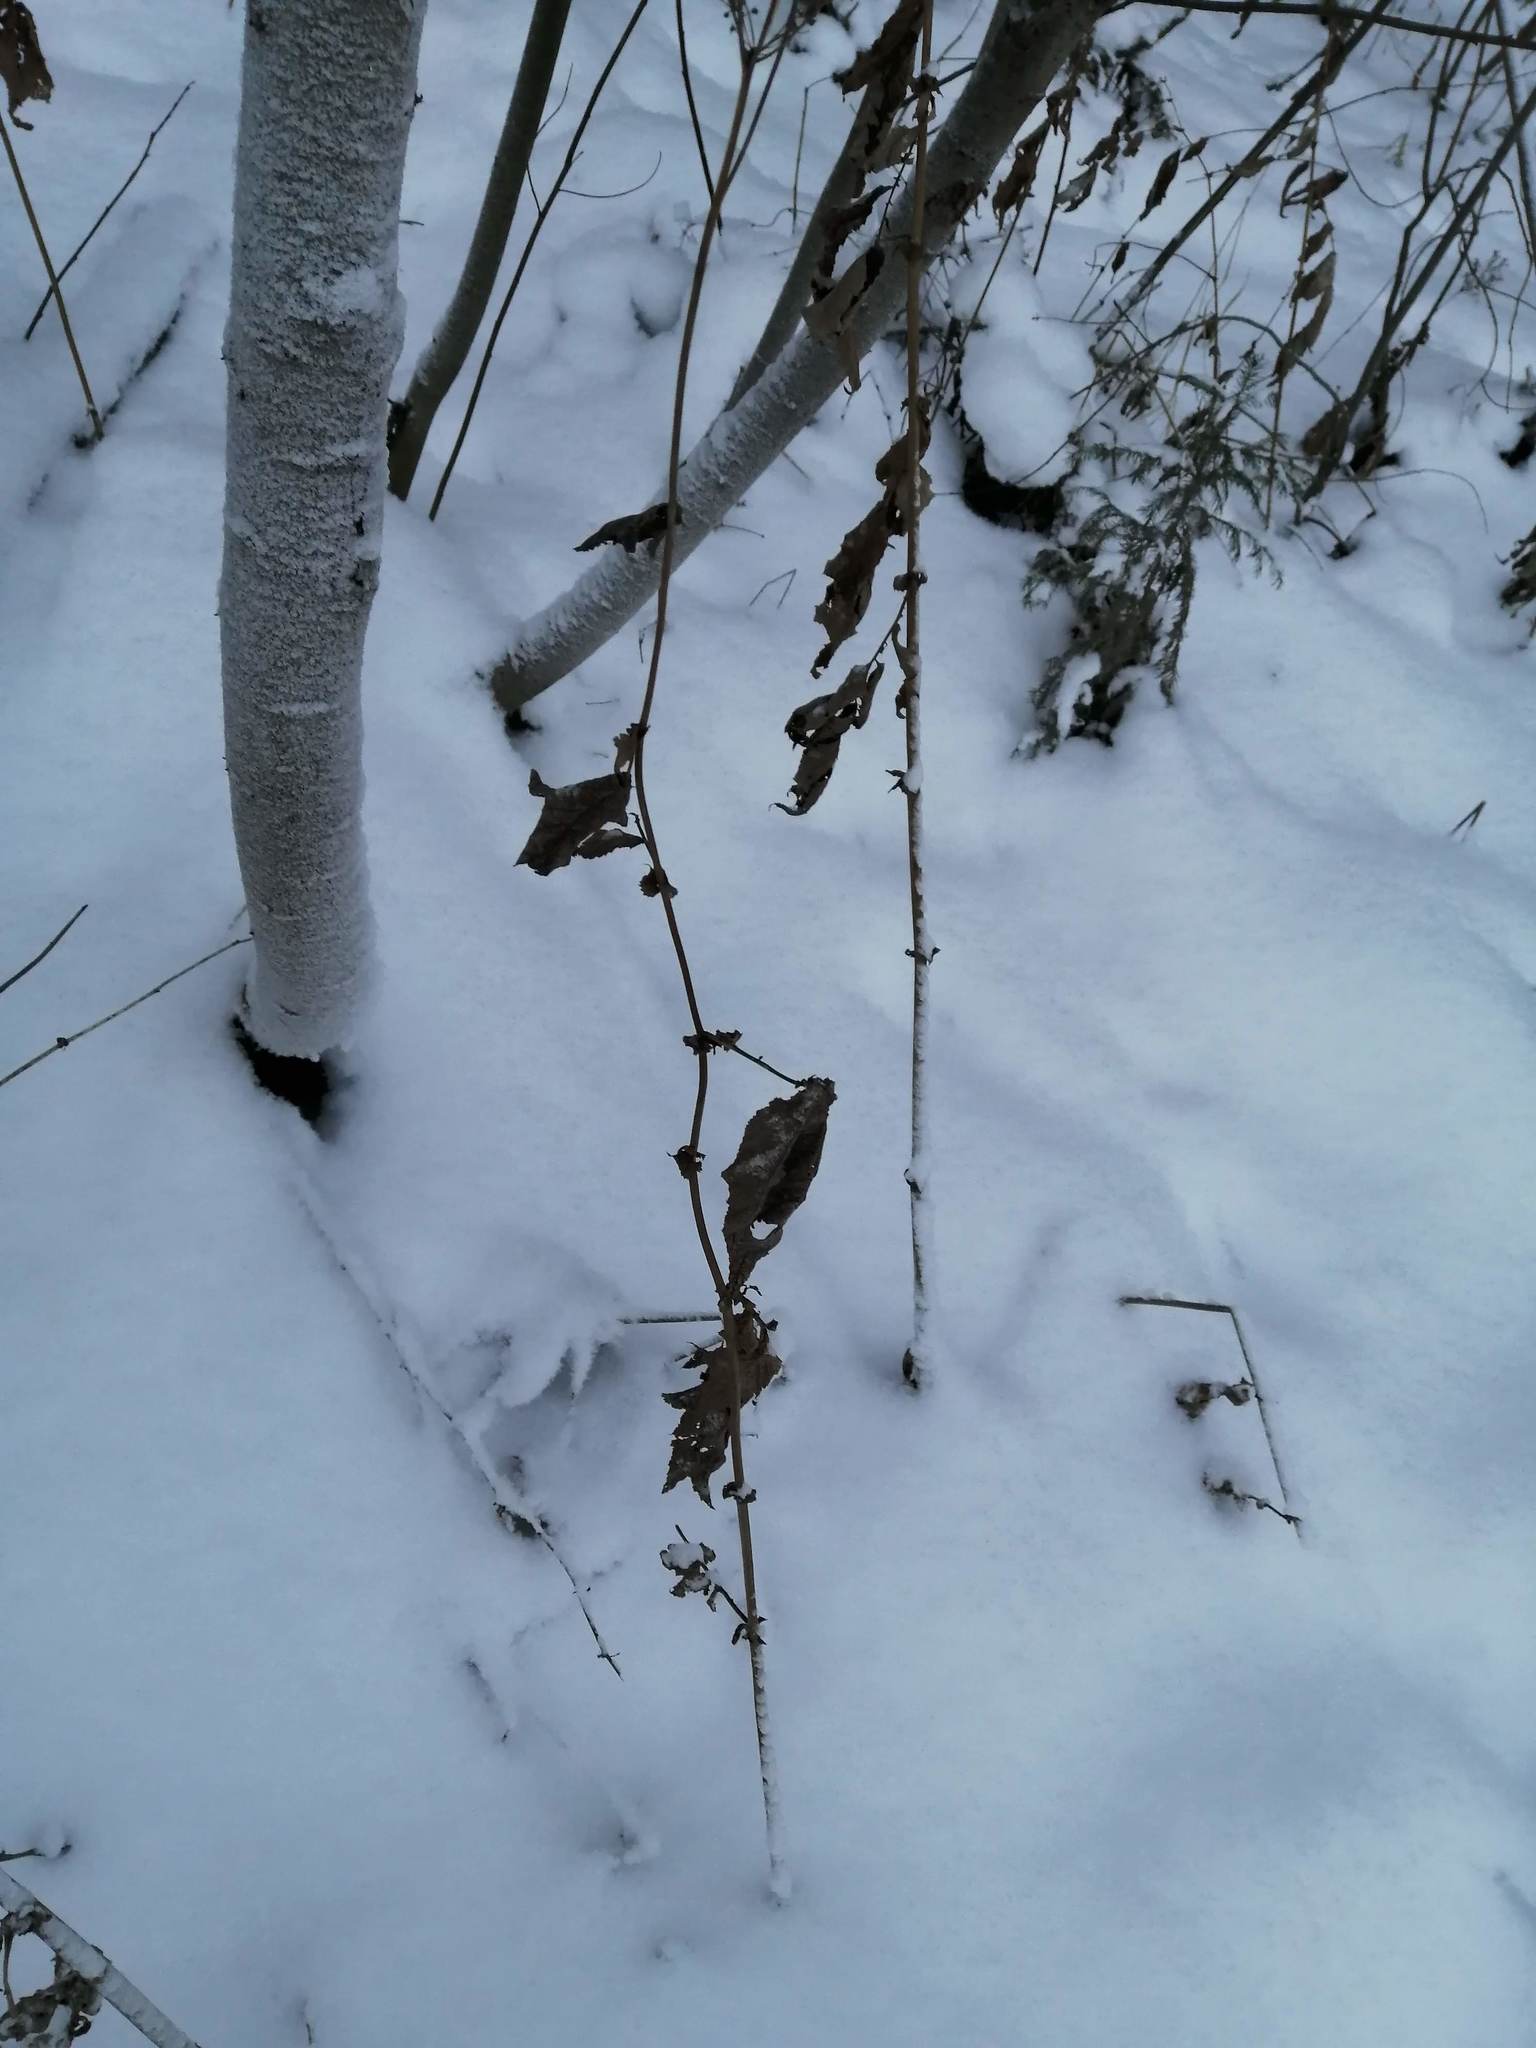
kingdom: Plantae
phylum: Tracheophyta
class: Magnoliopsida
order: Rosales
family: Rosaceae
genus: Filipendula
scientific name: Filipendula ulmaria
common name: Meadowsweet
